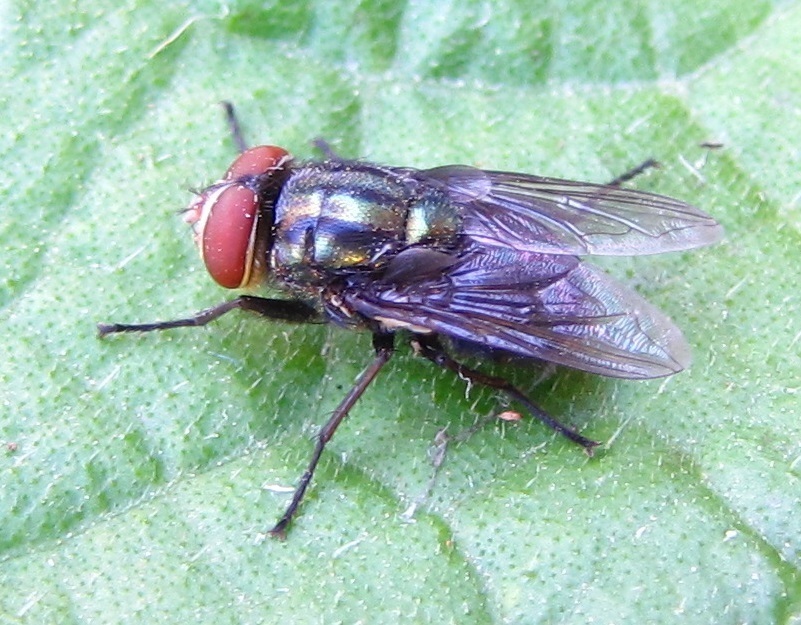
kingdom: Animalia
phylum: Arthropoda
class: Insecta
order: Diptera
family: Calliphoridae
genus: Cochliomyia
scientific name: Cochliomyia macellaria
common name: Secondary screwworm
